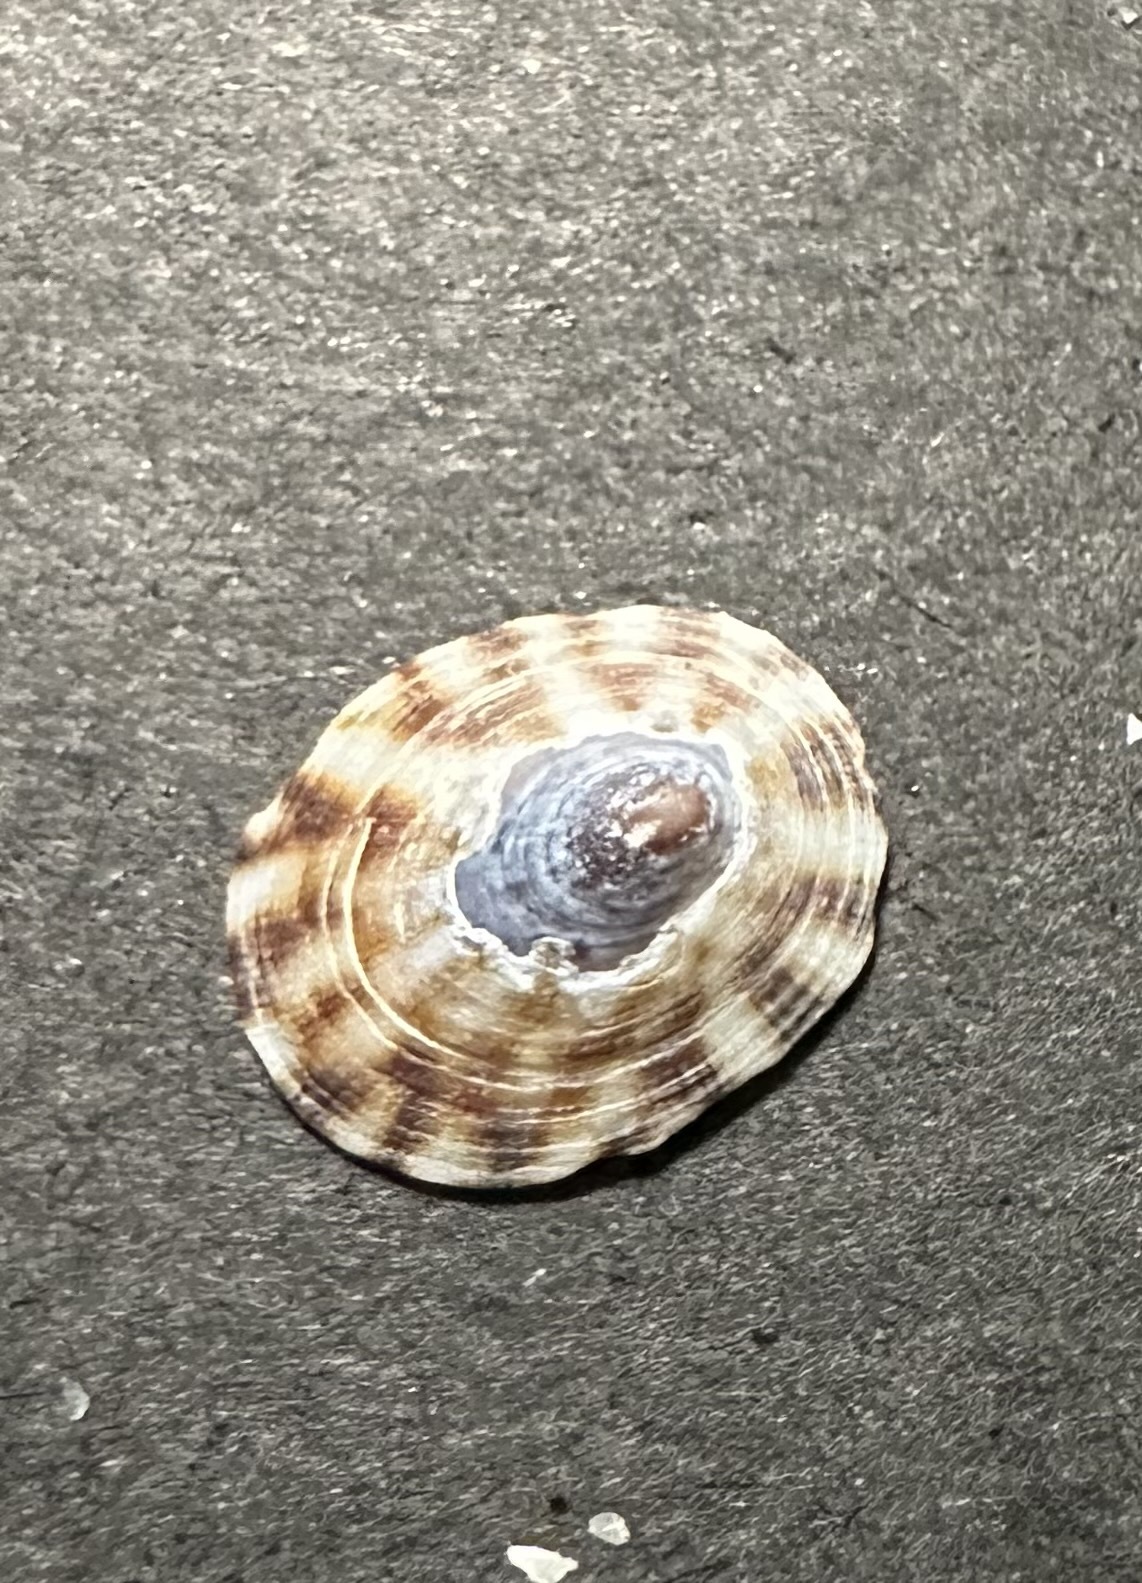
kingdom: Animalia
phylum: Mollusca
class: Gastropoda
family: Lottiidae
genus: Testudinalia
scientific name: Testudinalia testudinalis
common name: Common tortoiseshell limpet
